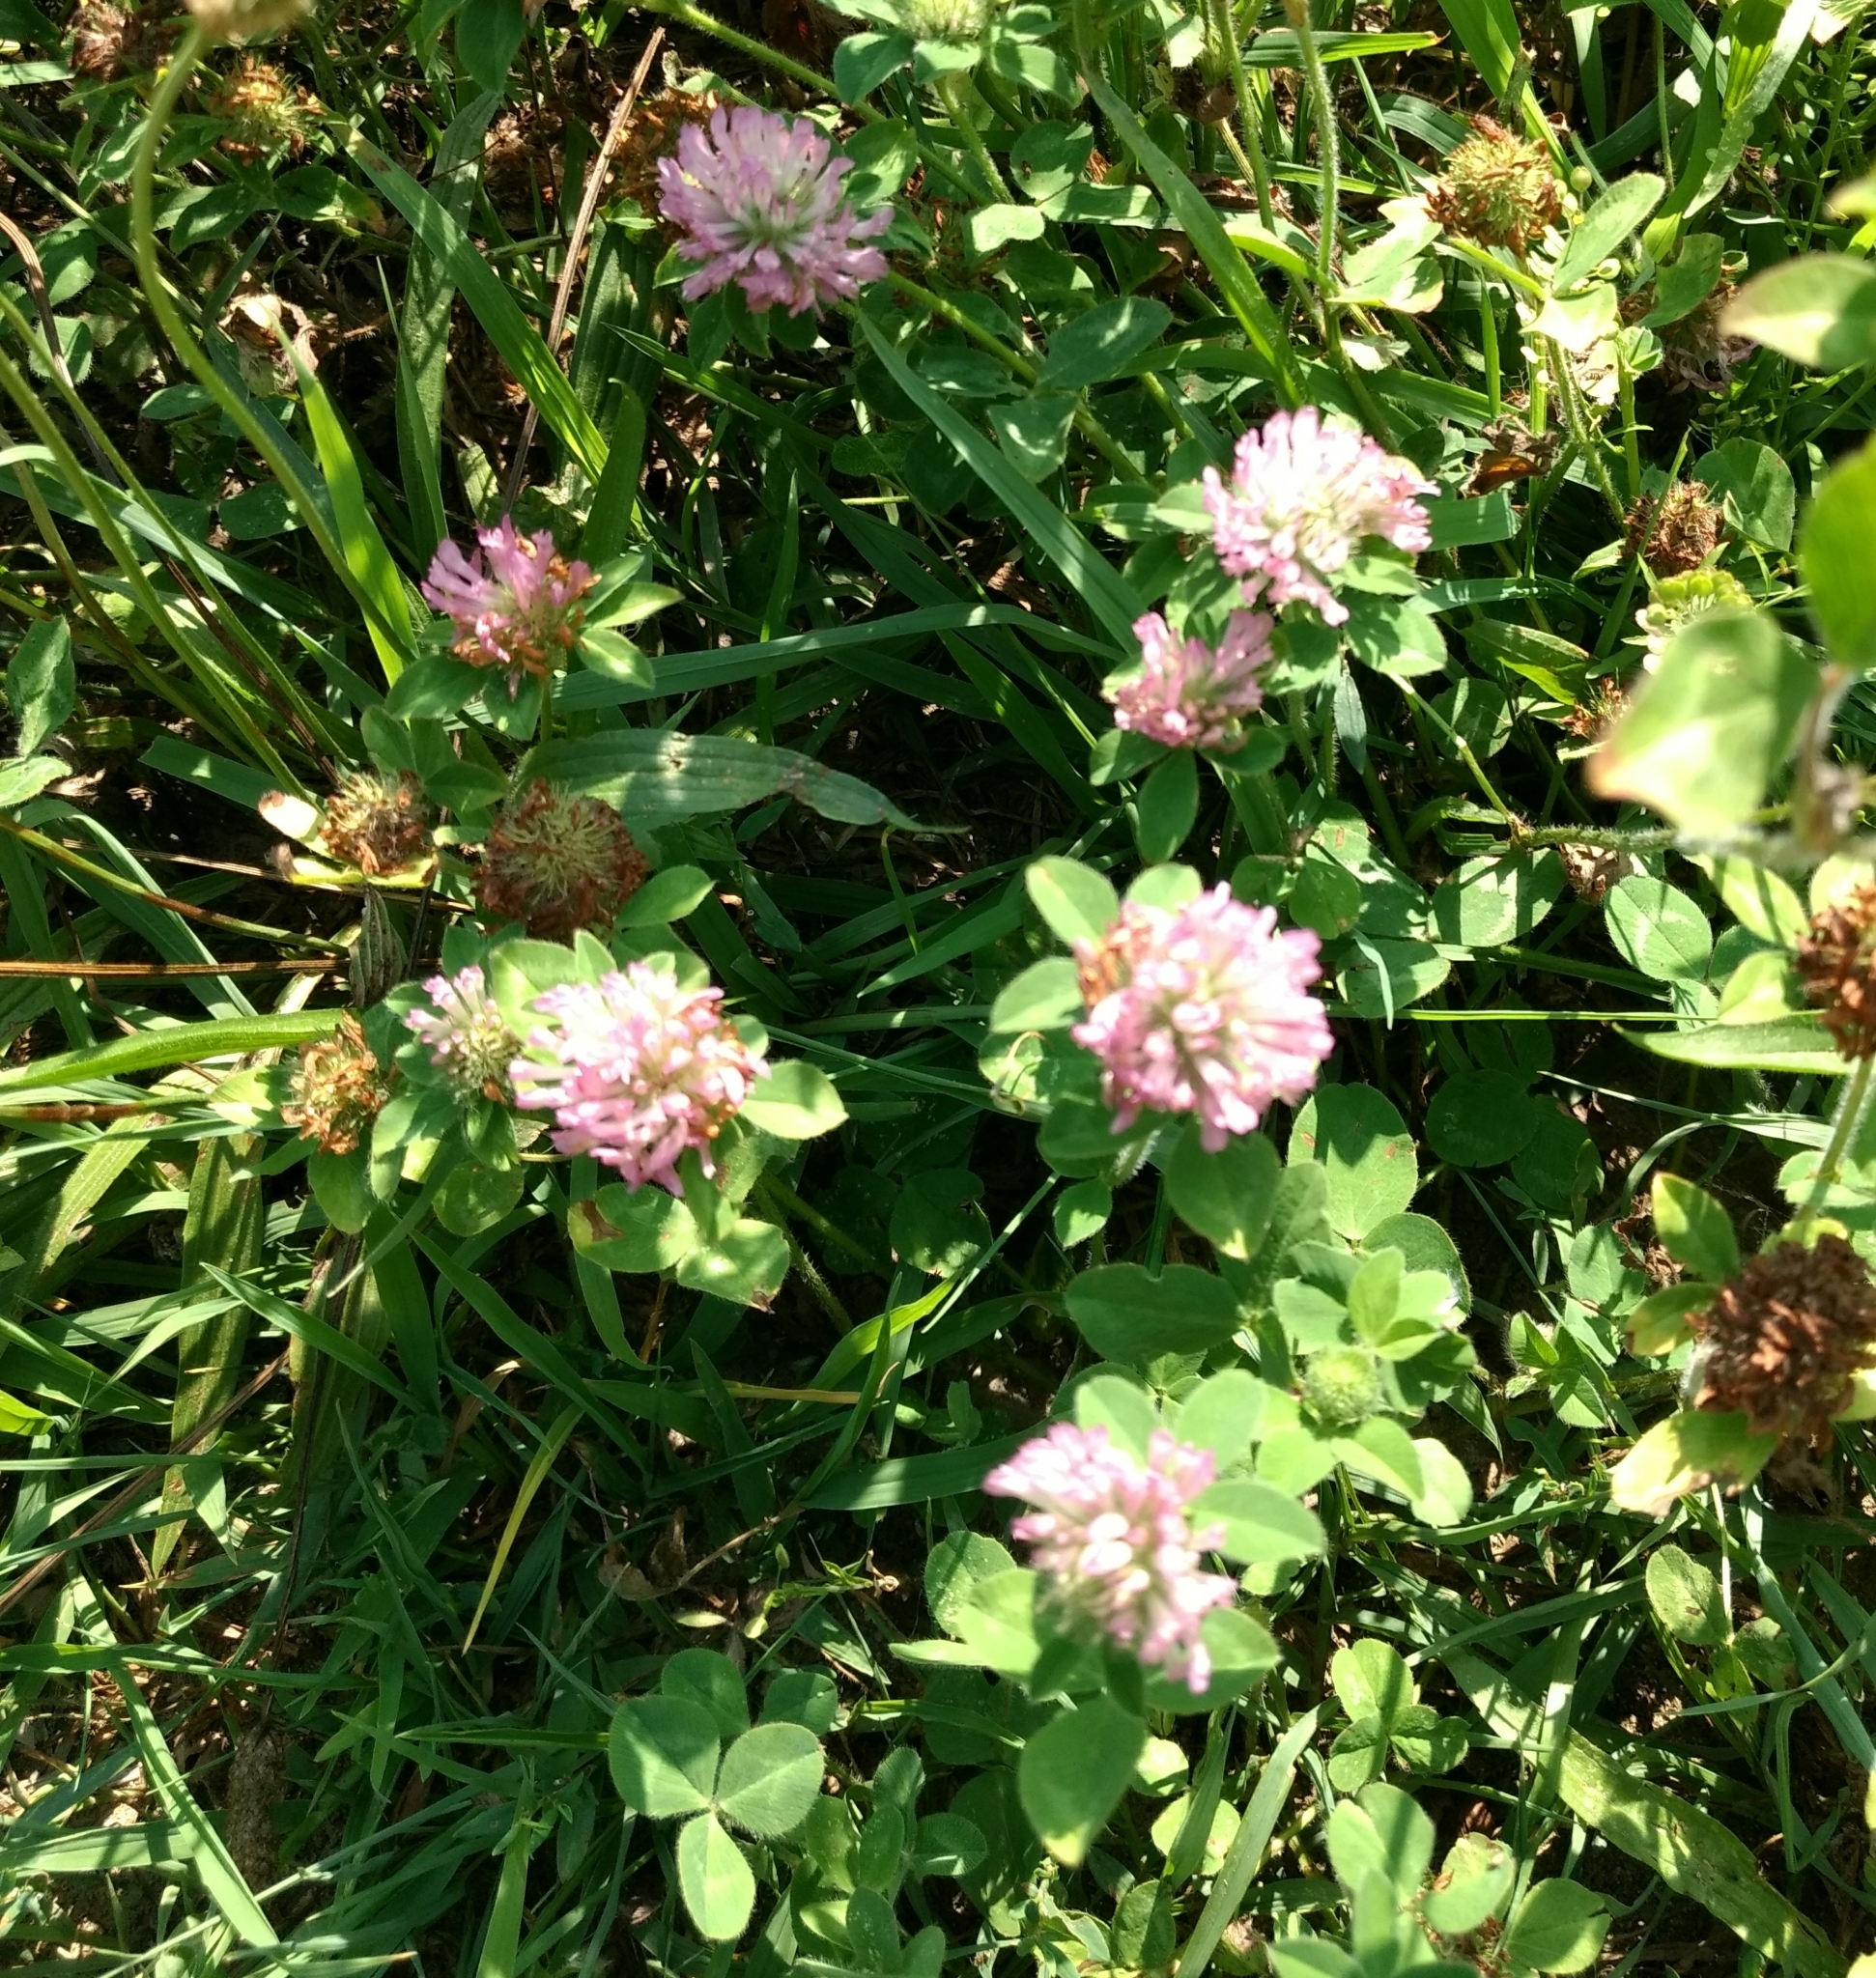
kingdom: Plantae
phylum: Tracheophyta
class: Magnoliopsida
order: Fabales
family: Fabaceae
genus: Trifolium
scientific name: Trifolium pratense
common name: Red clover
